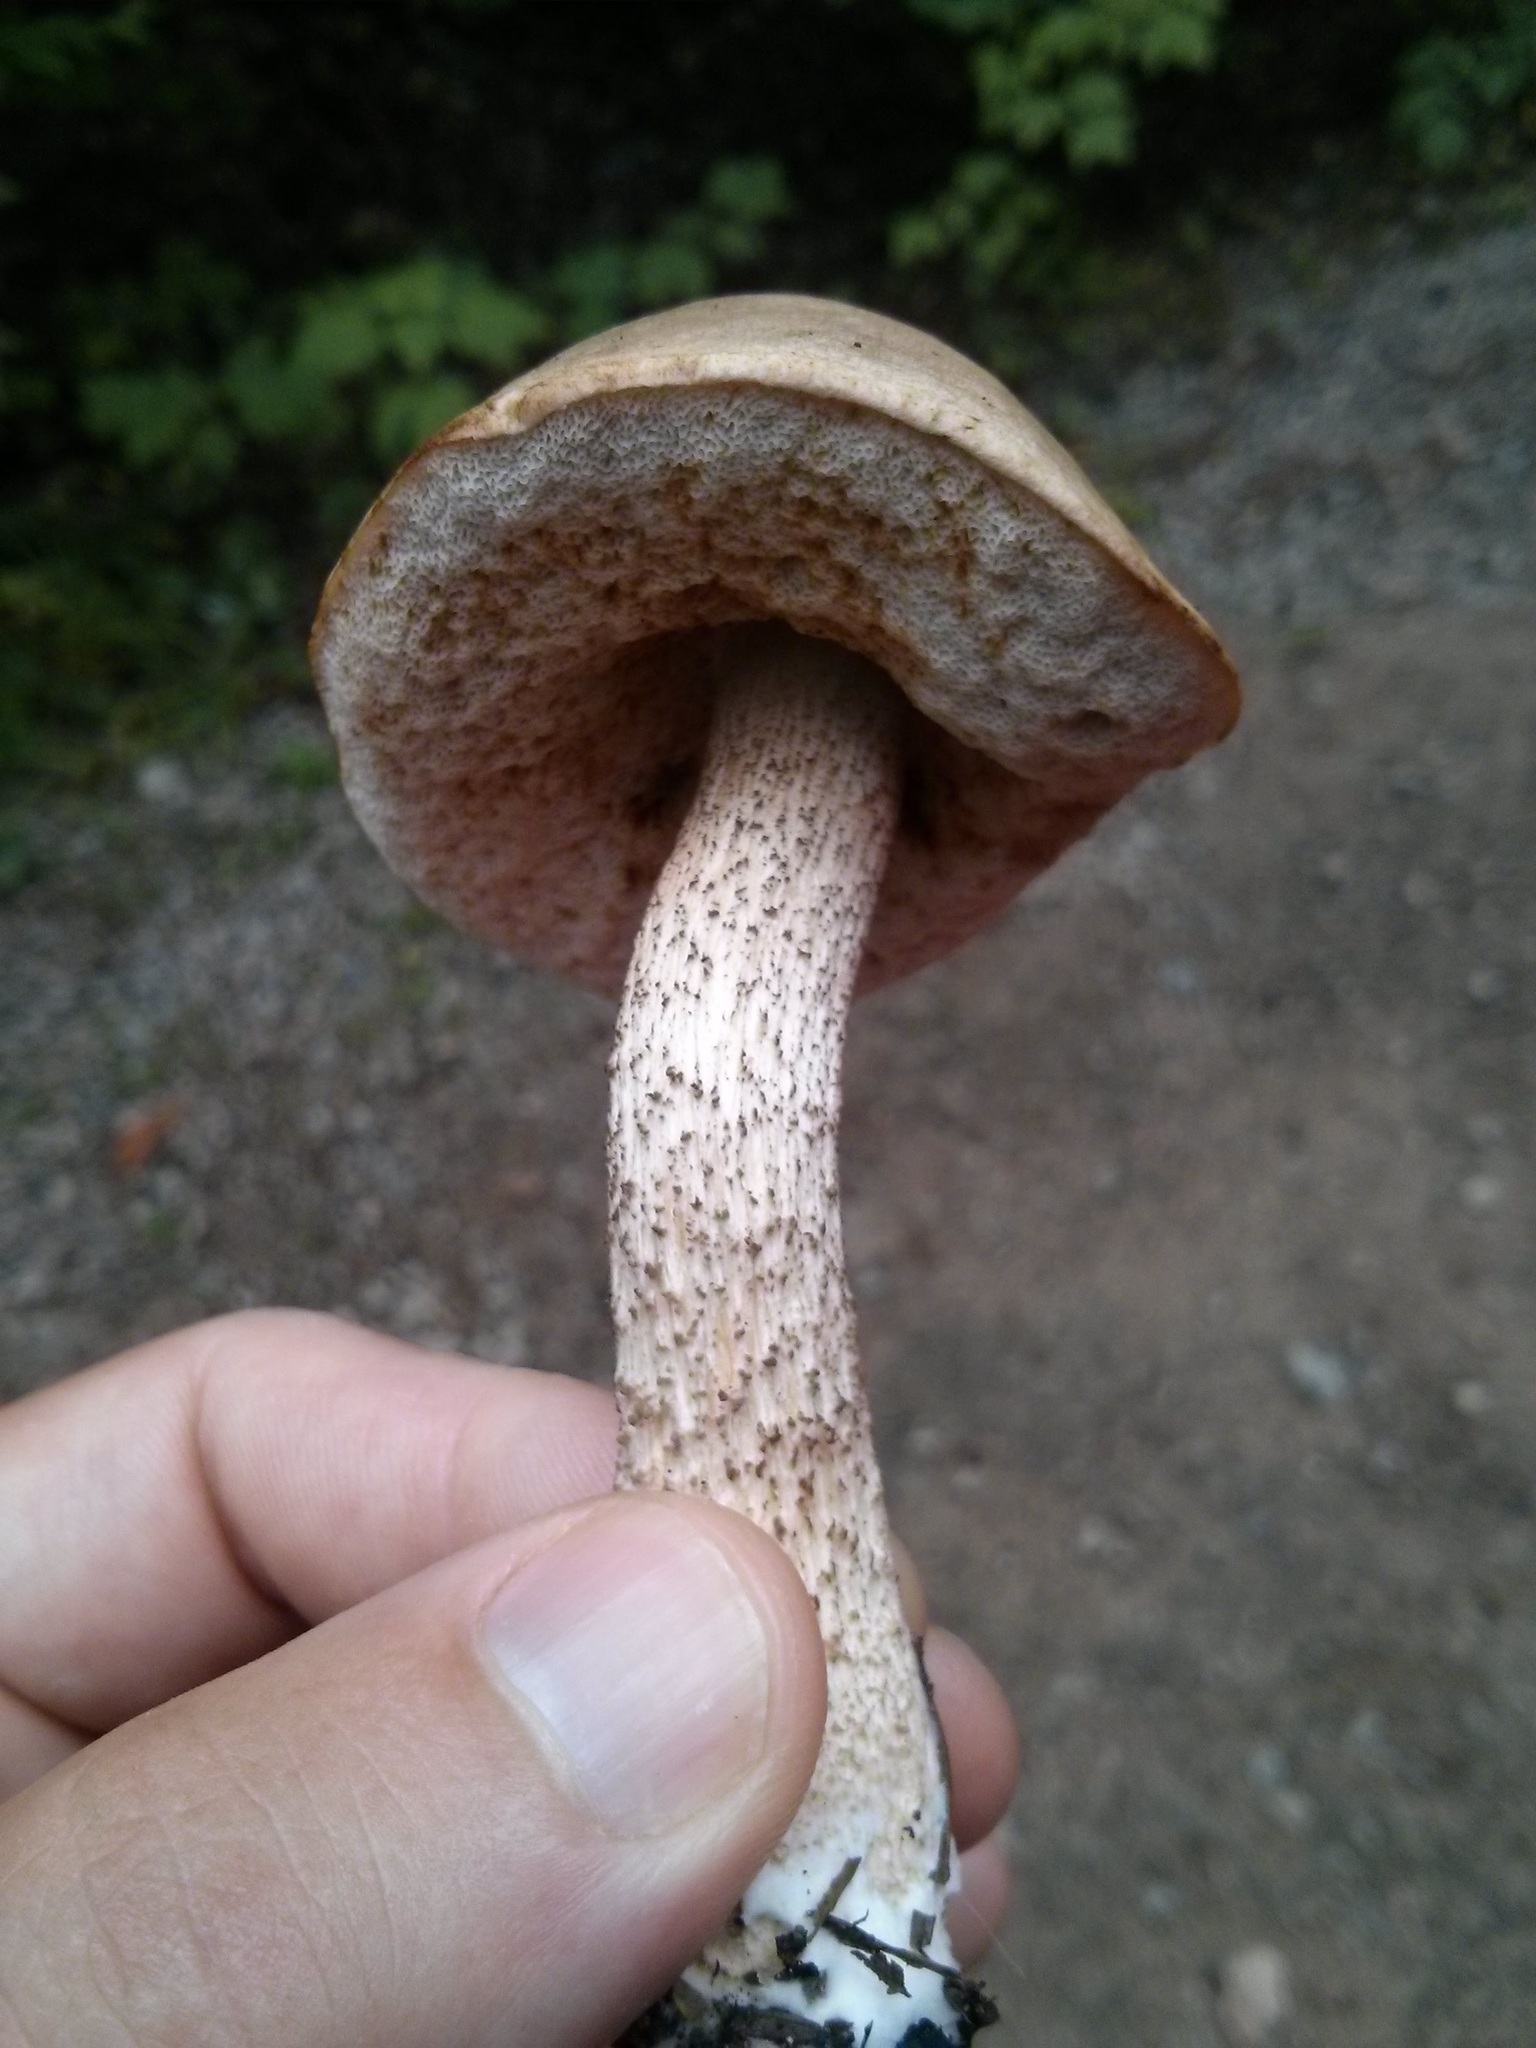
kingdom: Fungi
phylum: Basidiomycota
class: Agaricomycetes
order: Boletales
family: Boletaceae
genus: Leccinum
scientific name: Leccinum scabrum
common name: Blushing bolete
